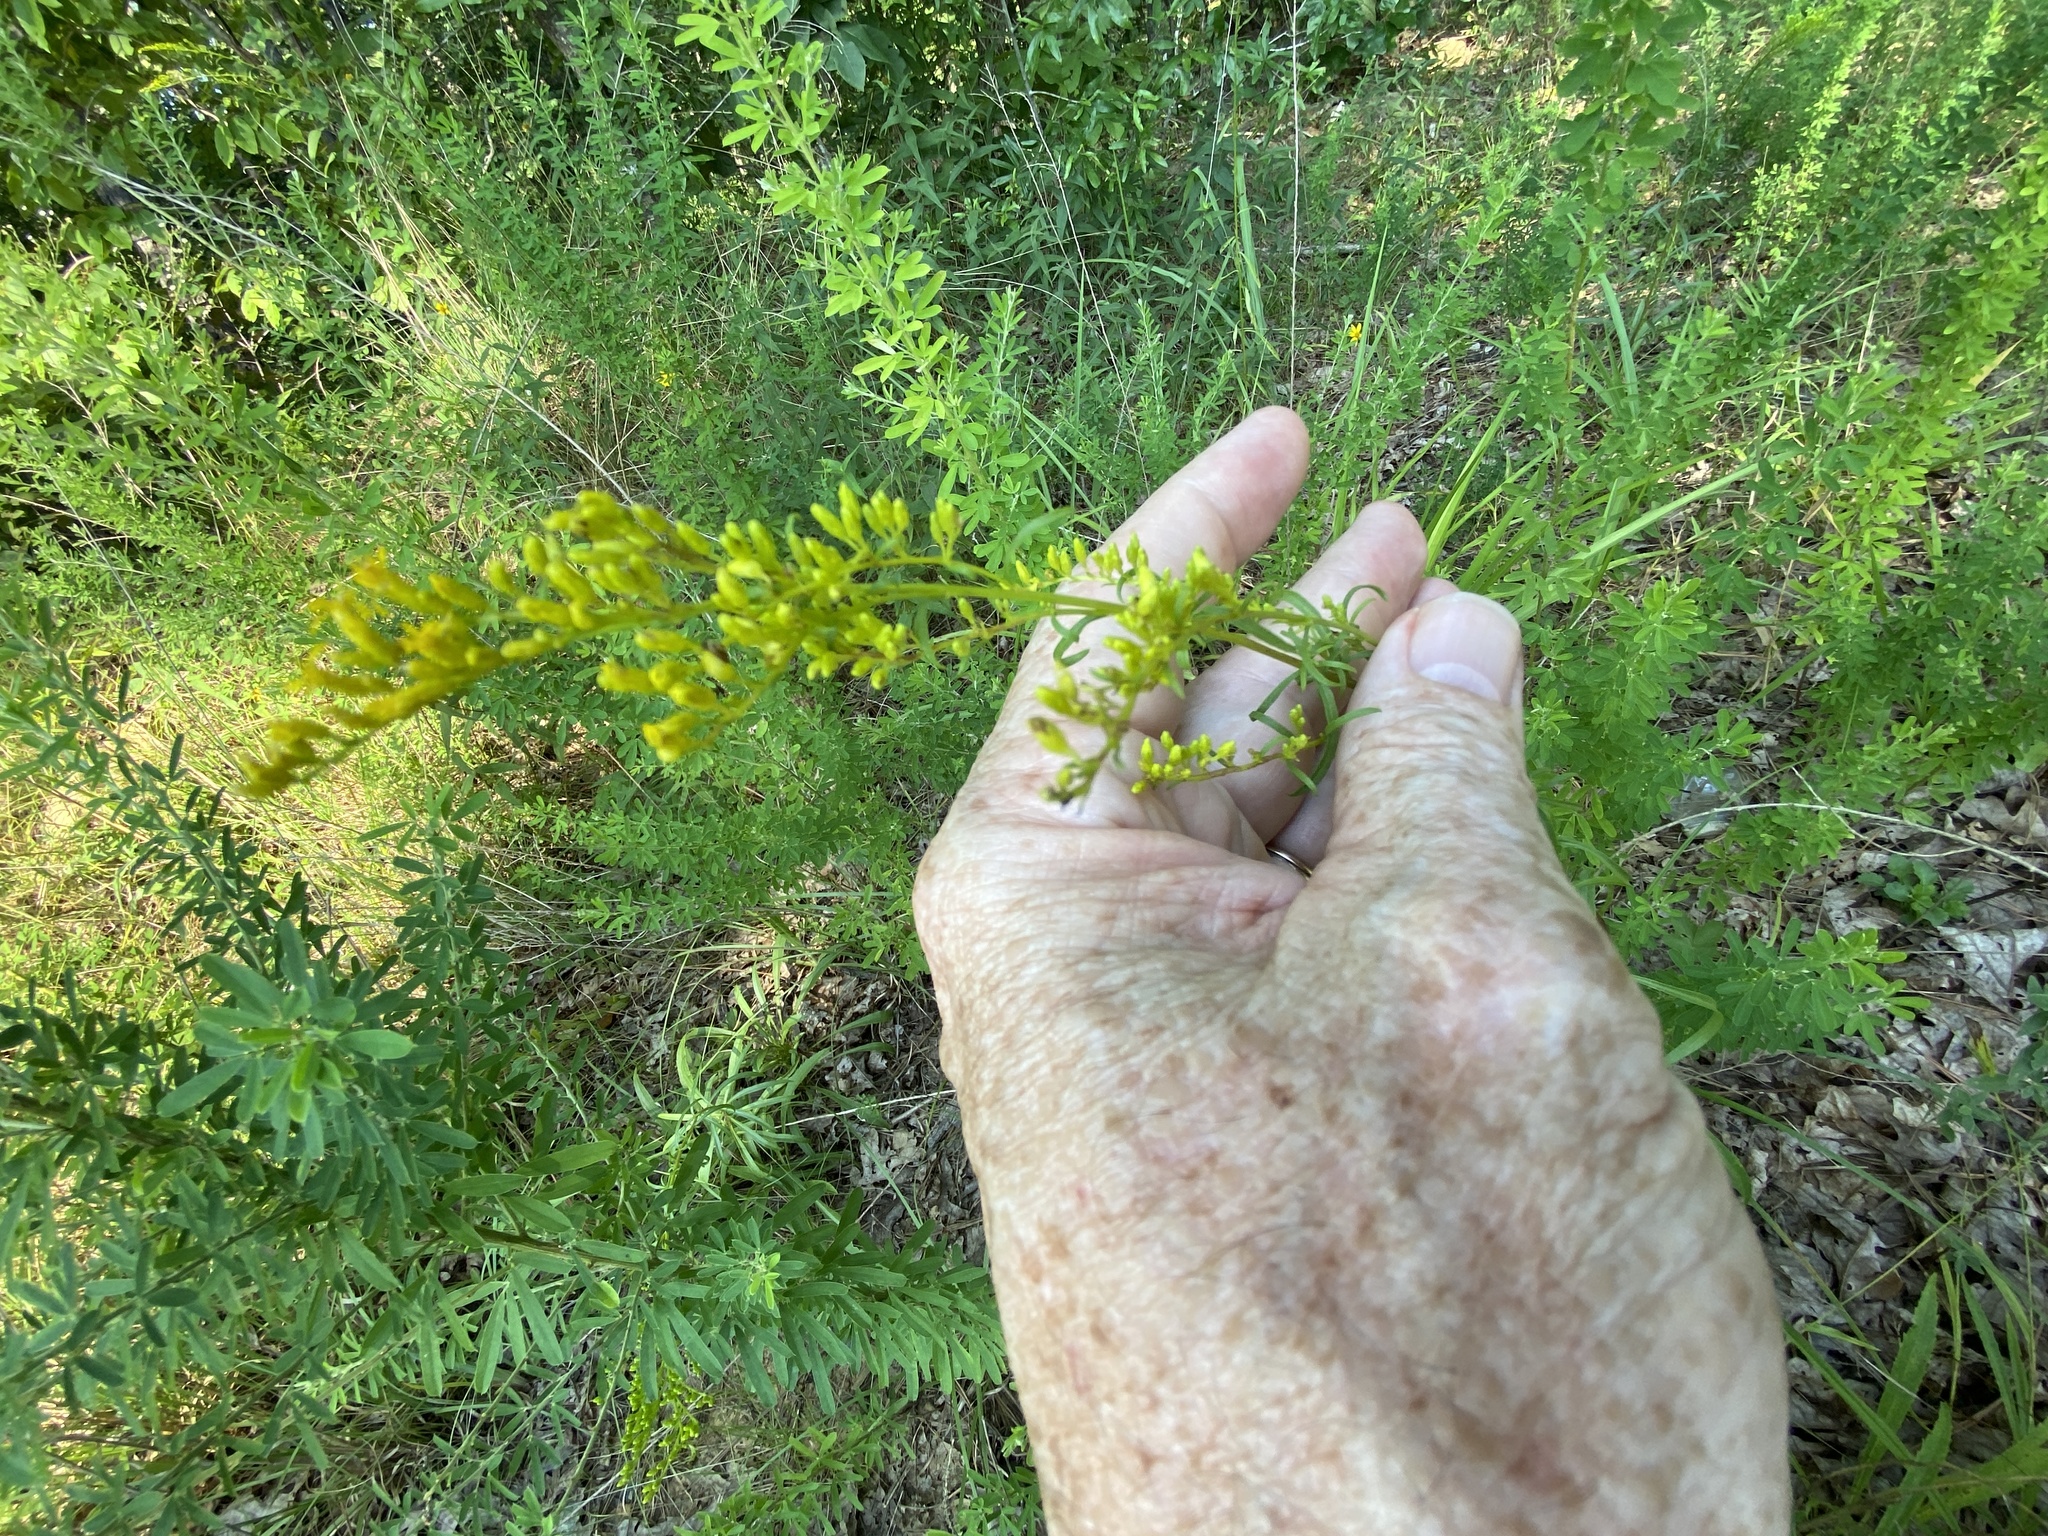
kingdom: Plantae
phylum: Tracheophyta
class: Magnoliopsida
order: Asterales
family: Asteraceae
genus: Solidago
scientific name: Solidago pinetorum
